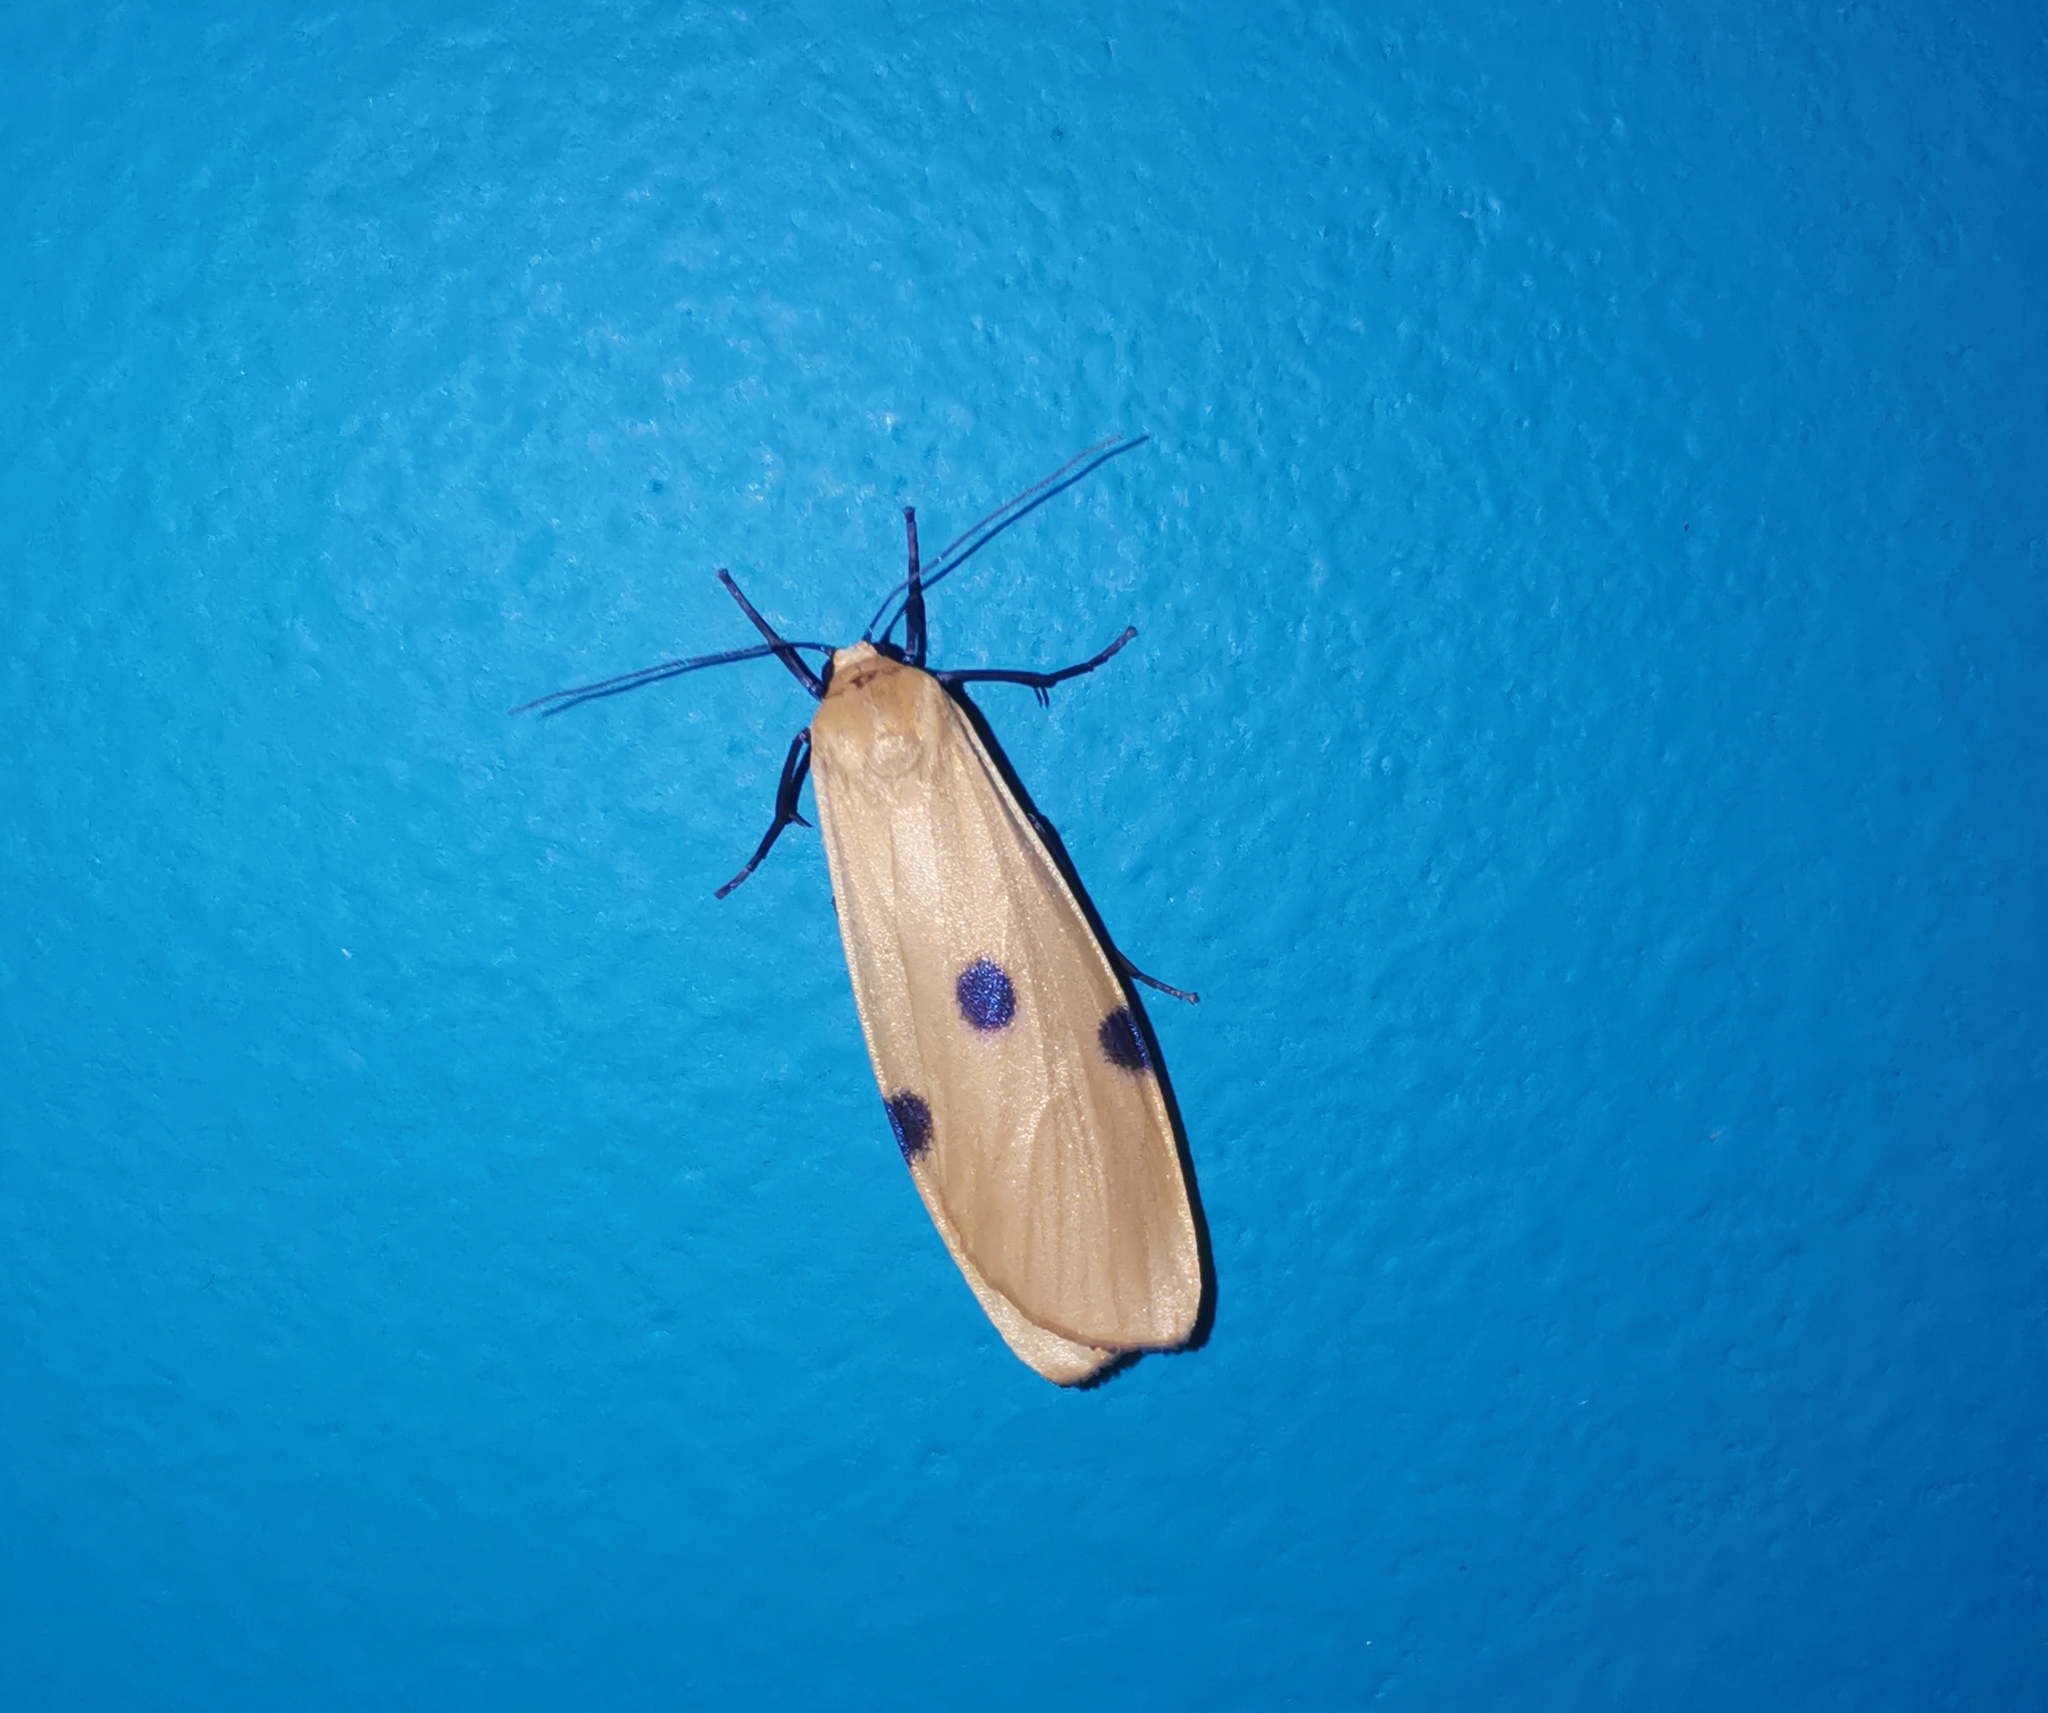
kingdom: Animalia
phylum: Arthropoda
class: Insecta
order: Lepidoptera
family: Erebidae
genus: Lithosia
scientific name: Lithosia quadra
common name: Four-spotted footman
